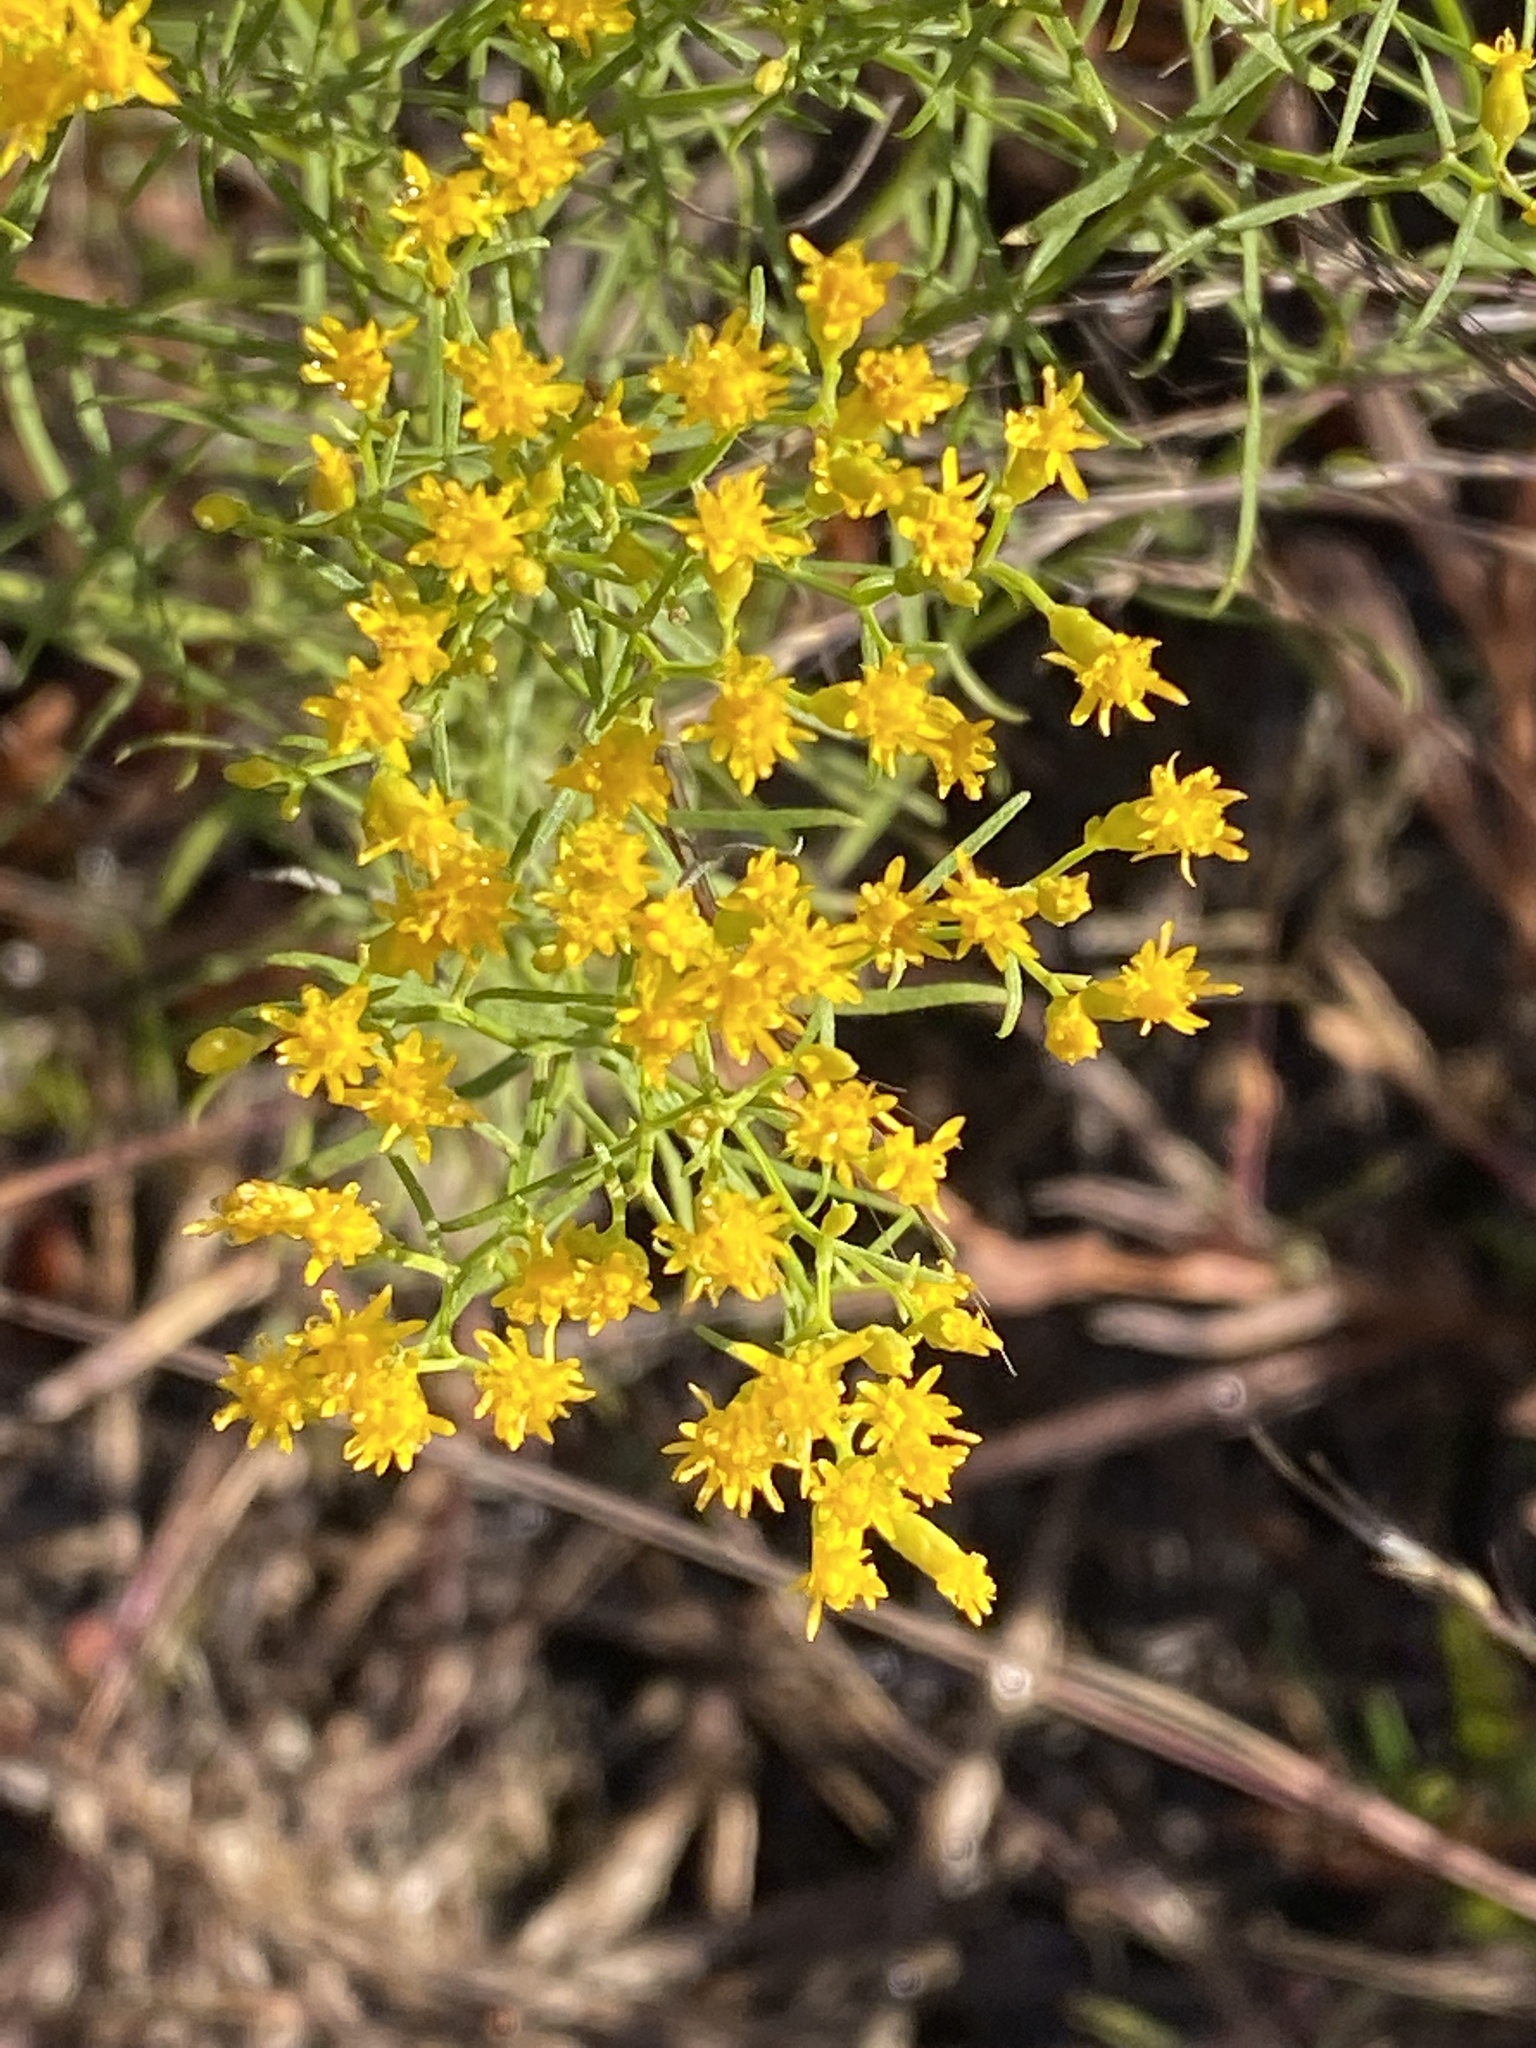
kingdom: Plantae
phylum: Tracheophyta
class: Magnoliopsida
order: Asterales
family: Asteraceae
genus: Euthamia
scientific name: Euthamia caroliniana
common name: Coastal plain goldentop
